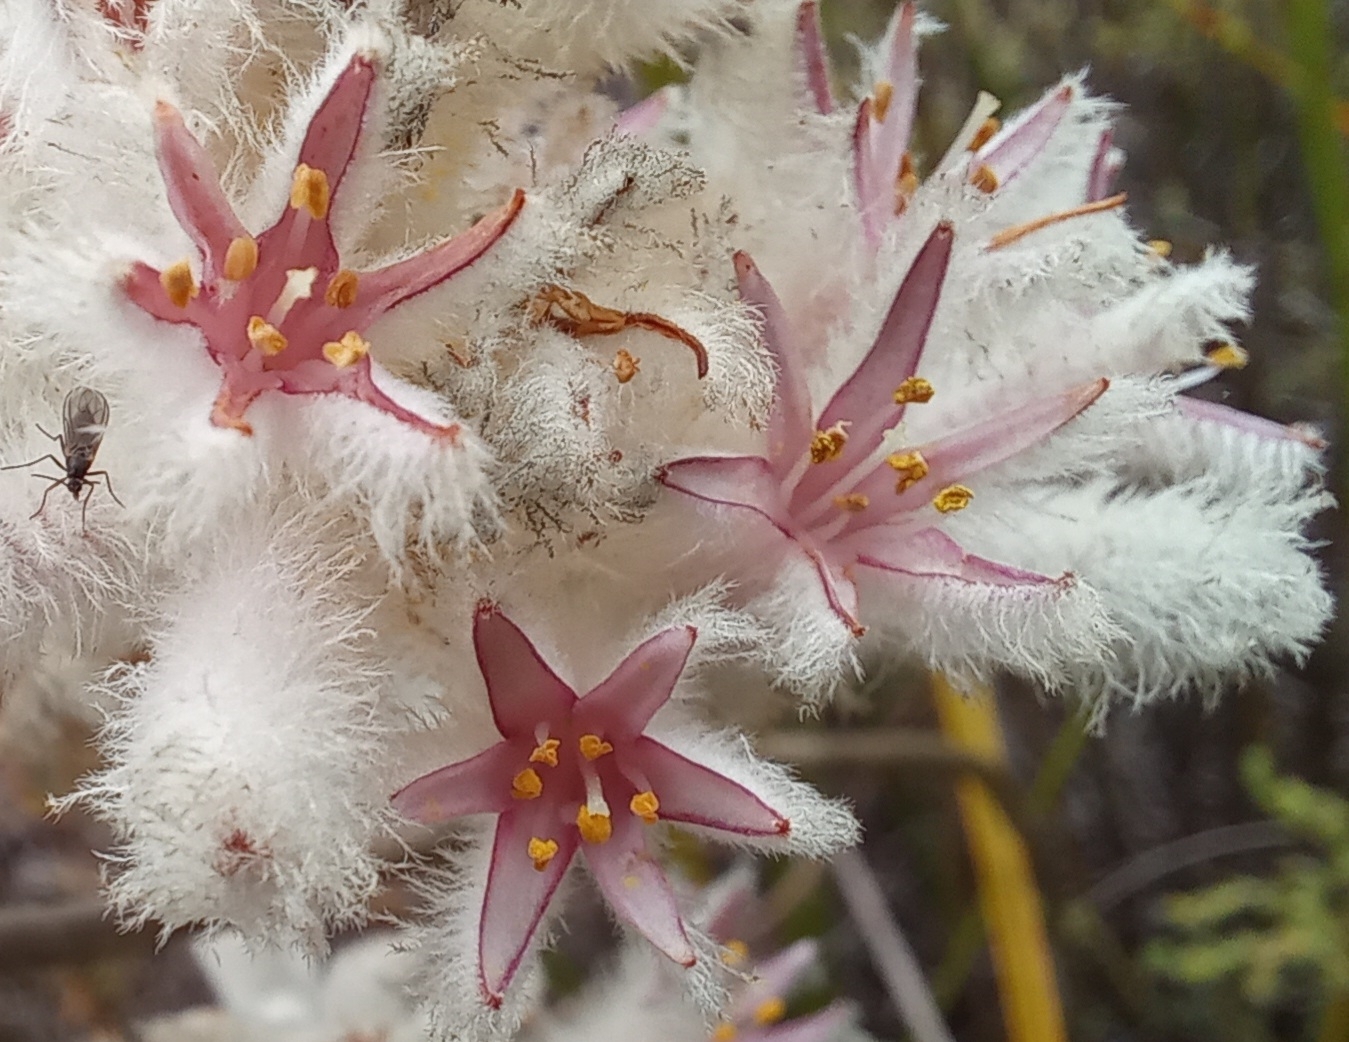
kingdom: Plantae
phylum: Tracheophyta
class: Liliopsida
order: Asparagales
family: Lanariaceae
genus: Lanaria
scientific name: Lanaria lanata
